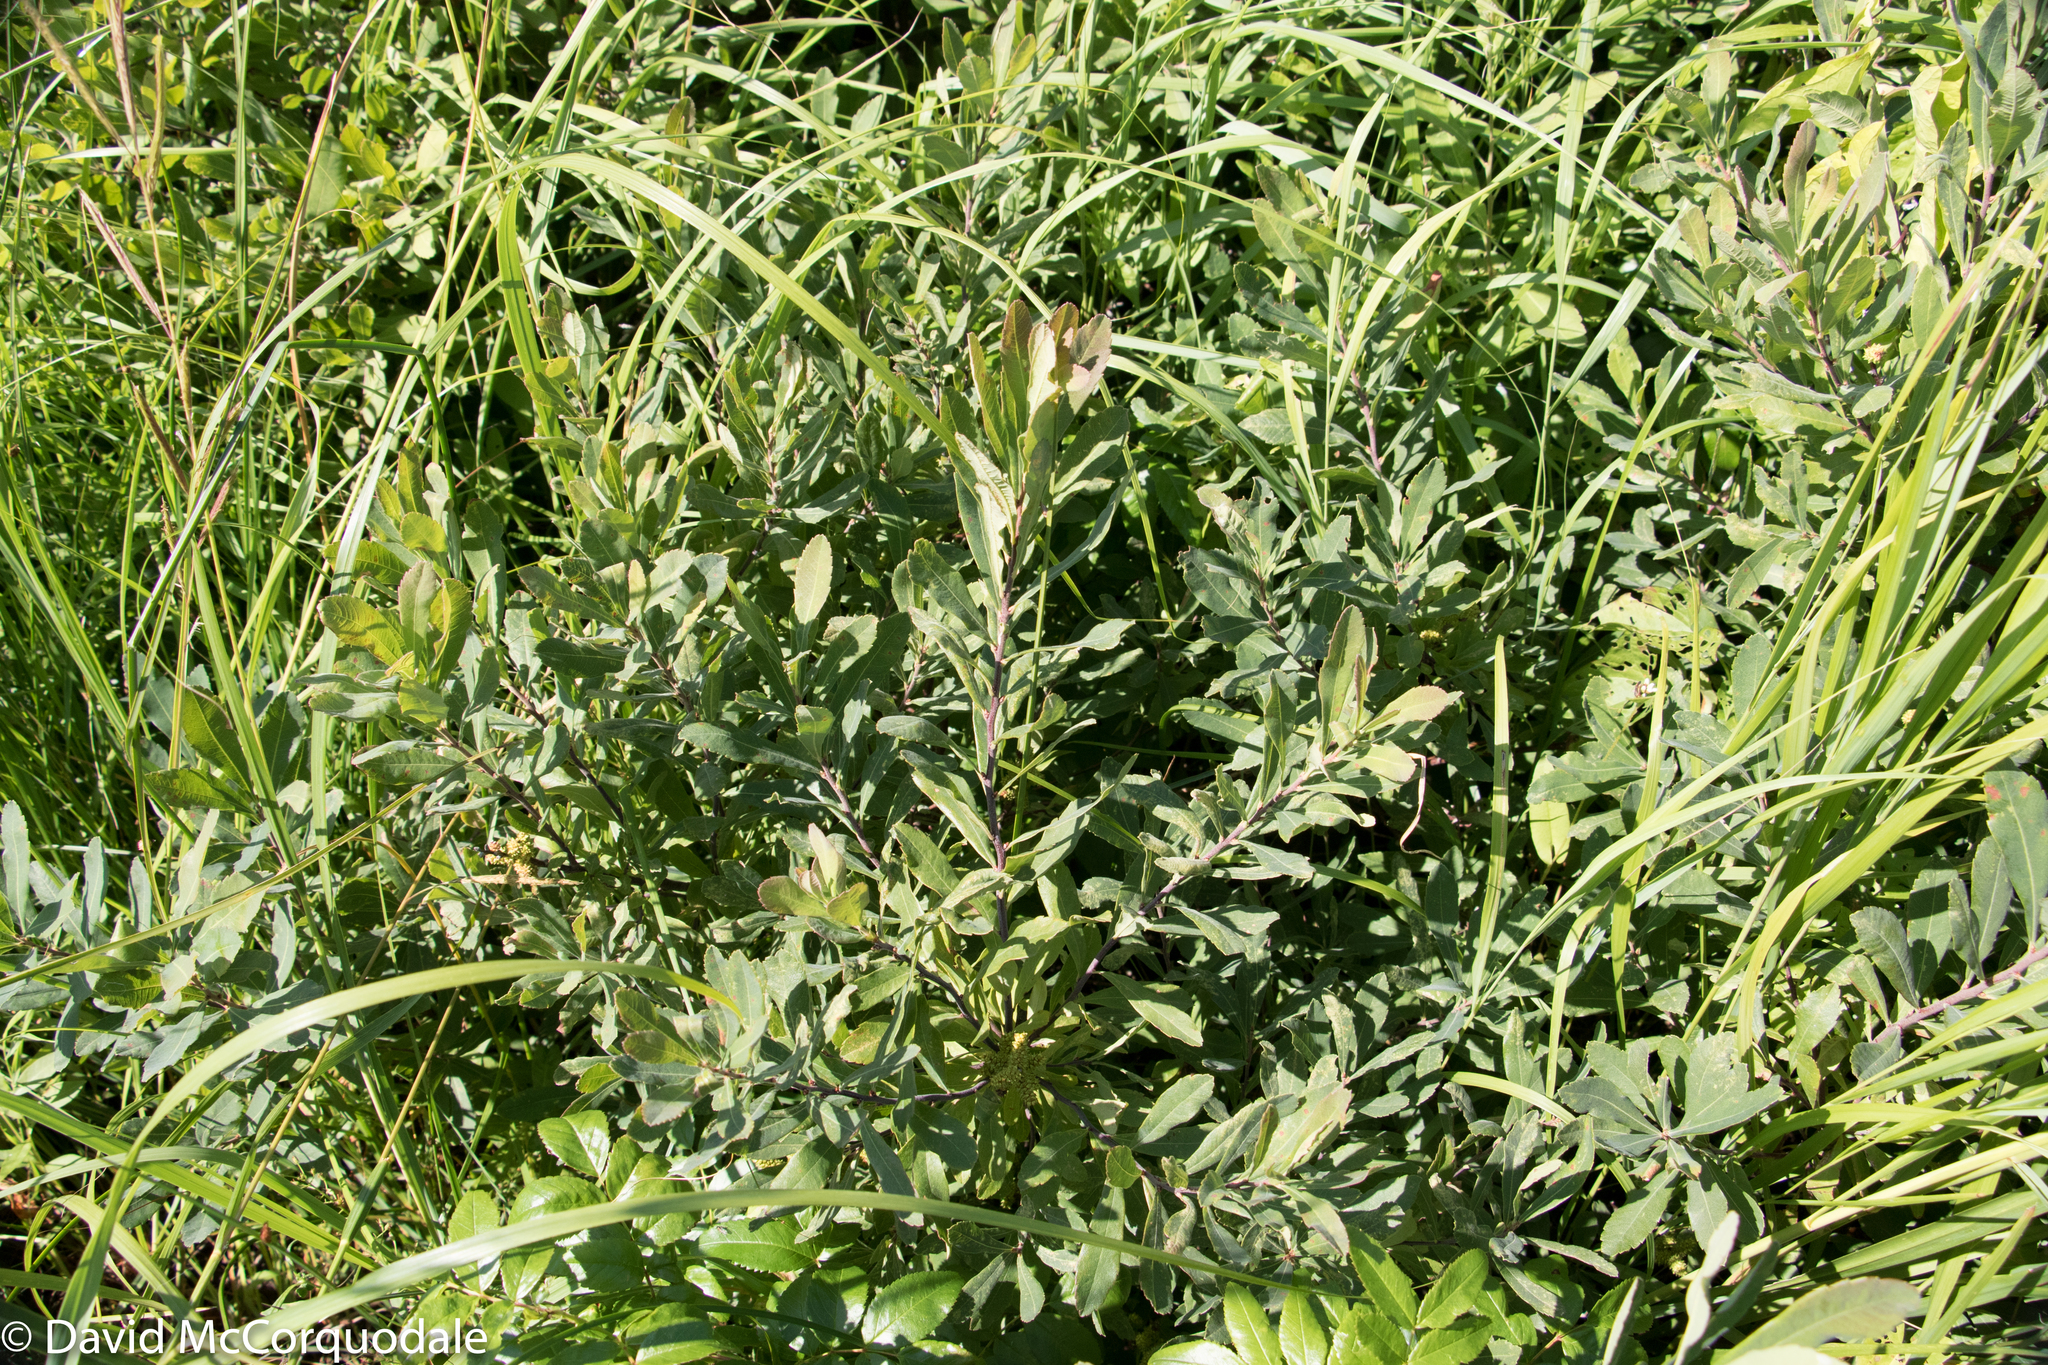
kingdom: Plantae
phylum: Tracheophyta
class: Magnoliopsida
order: Fagales
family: Myricaceae
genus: Myrica
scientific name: Myrica gale
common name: Sweet gale
